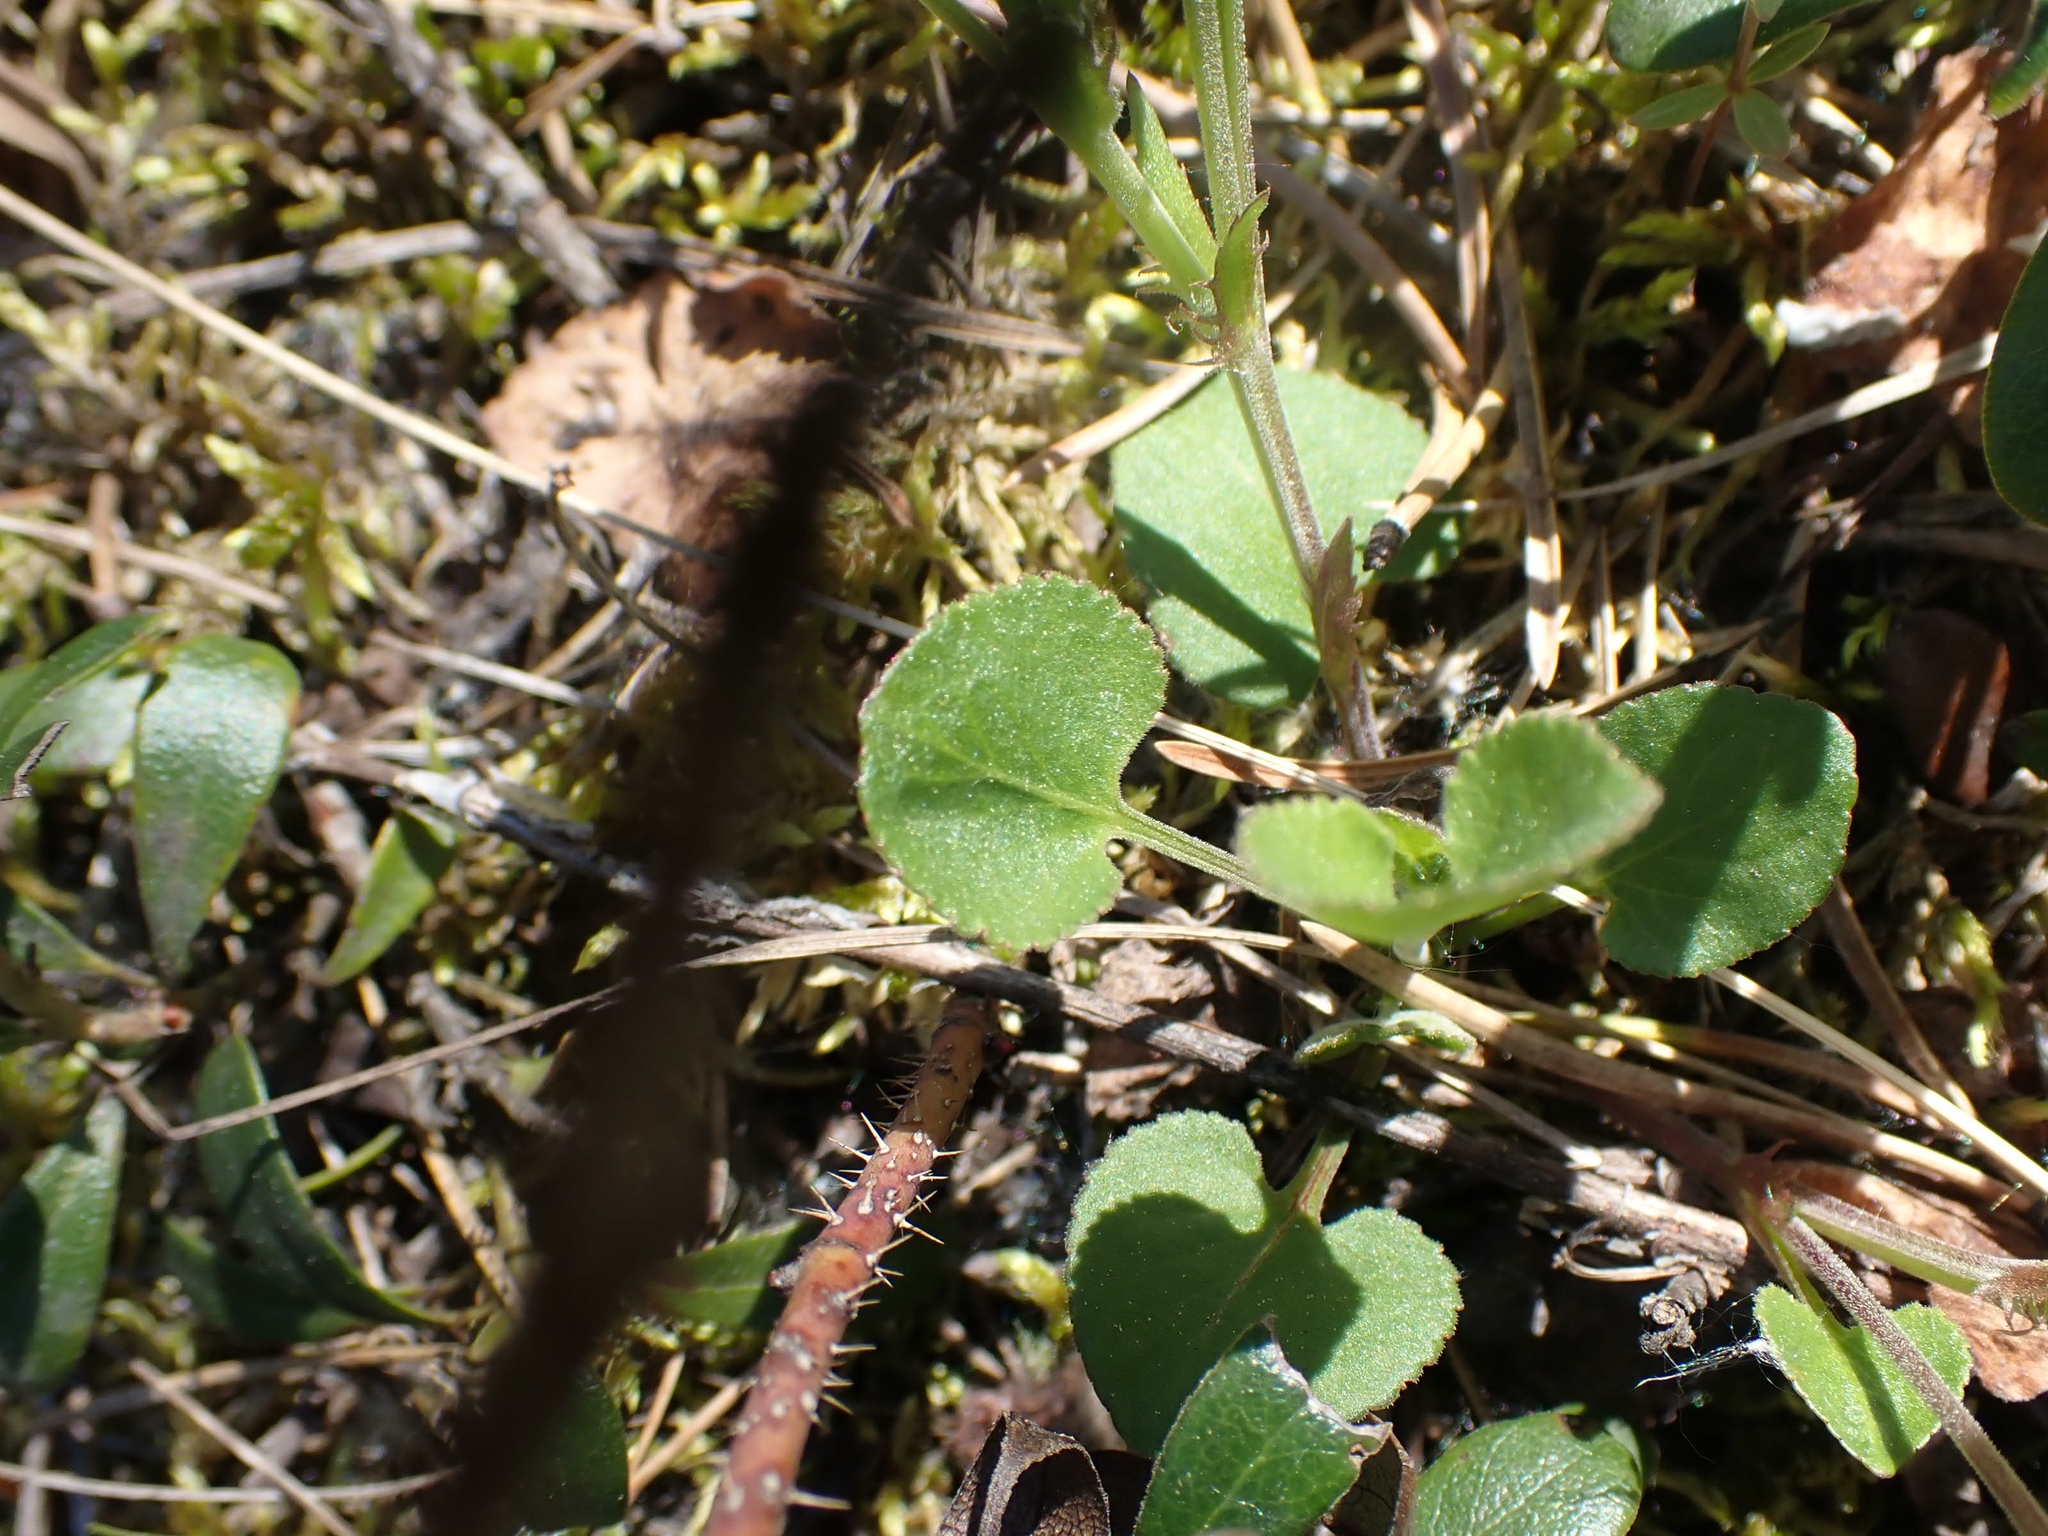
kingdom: Plantae
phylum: Tracheophyta
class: Magnoliopsida
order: Malpighiales
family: Violaceae
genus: Viola
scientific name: Viola labradorica
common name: Labrador violet
